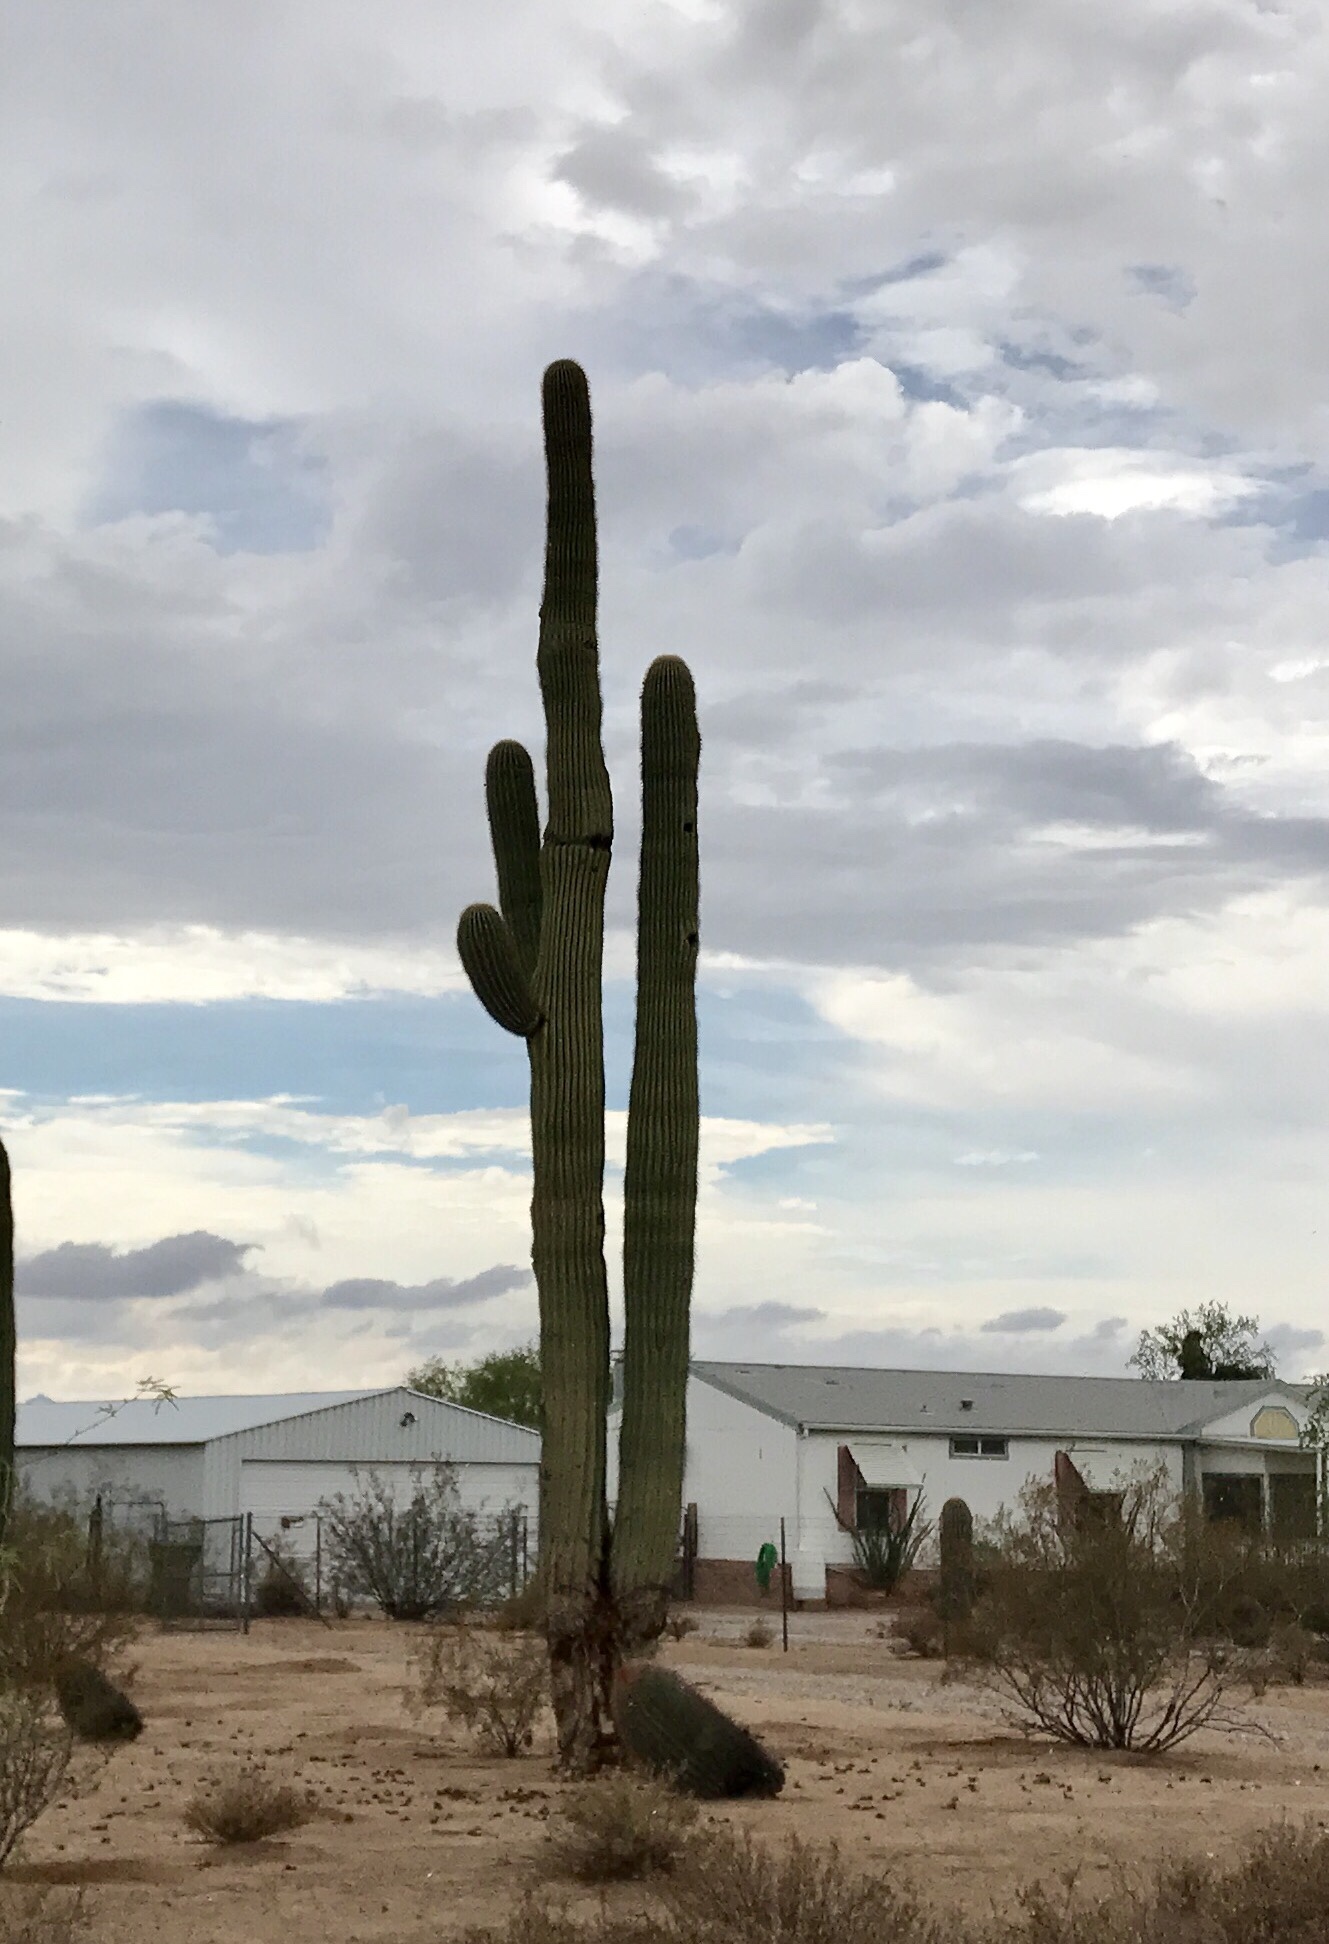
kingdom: Plantae
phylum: Tracheophyta
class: Magnoliopsida
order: Caryophyllales
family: Cactaceae
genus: Carnegiea
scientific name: Carnegiea gigantea
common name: Saguaro
